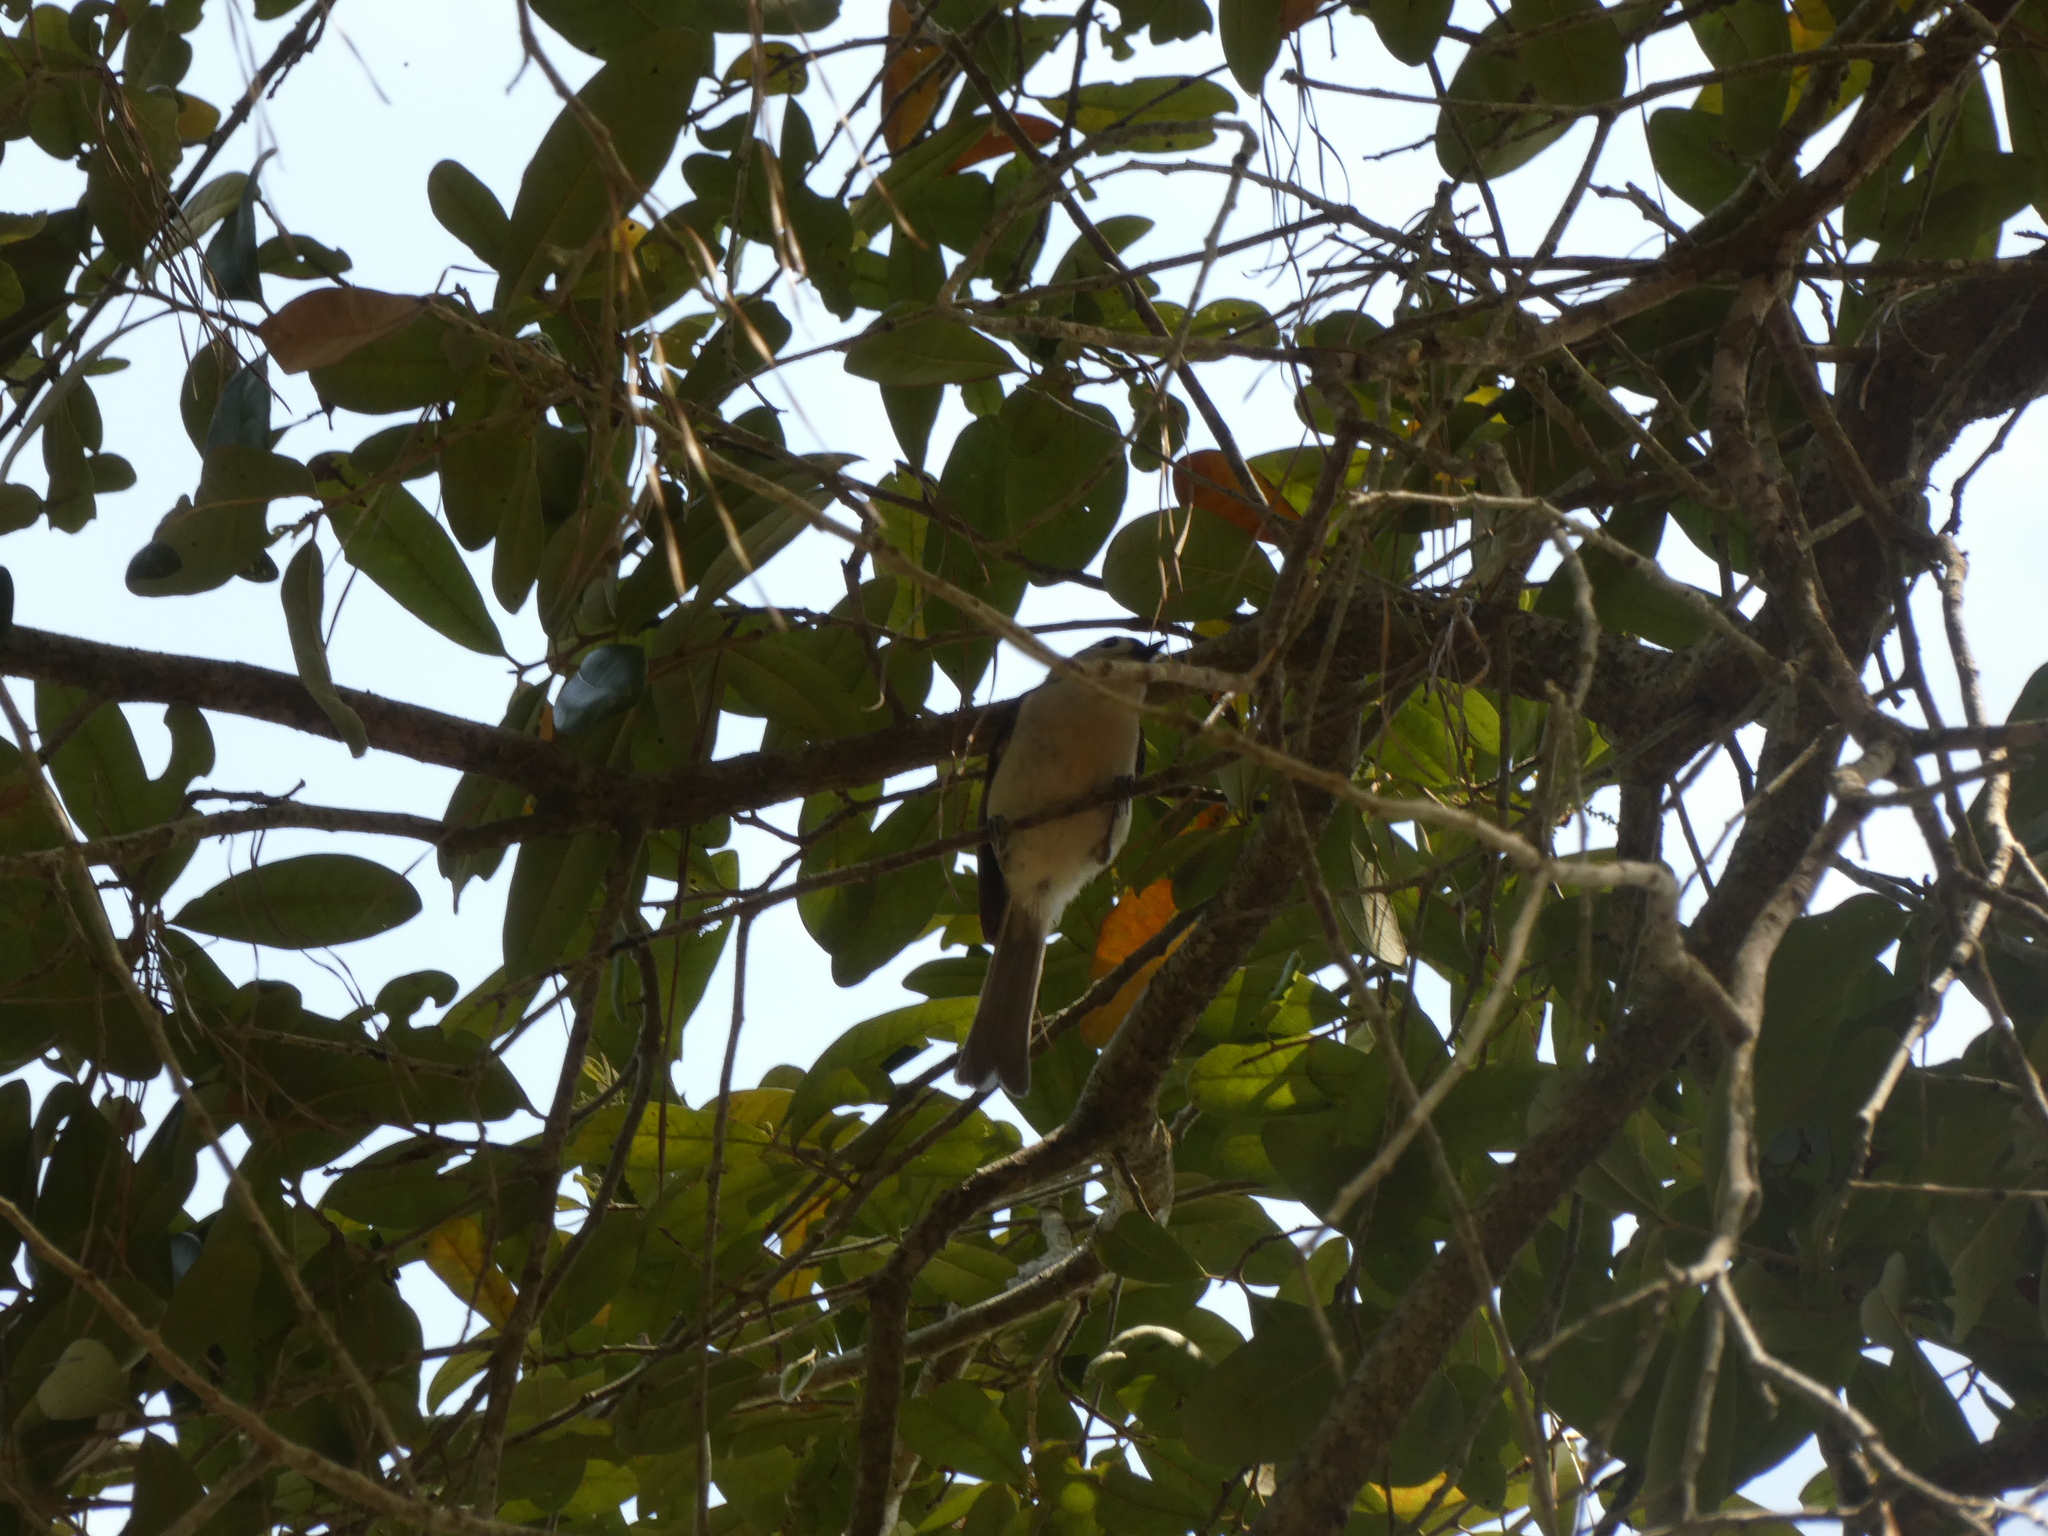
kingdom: Animalia
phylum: Chordata
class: Aves
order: Passeriformes
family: Paridae
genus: Baeolophus
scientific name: Baeolophus bicolor
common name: Tufted titmouse
